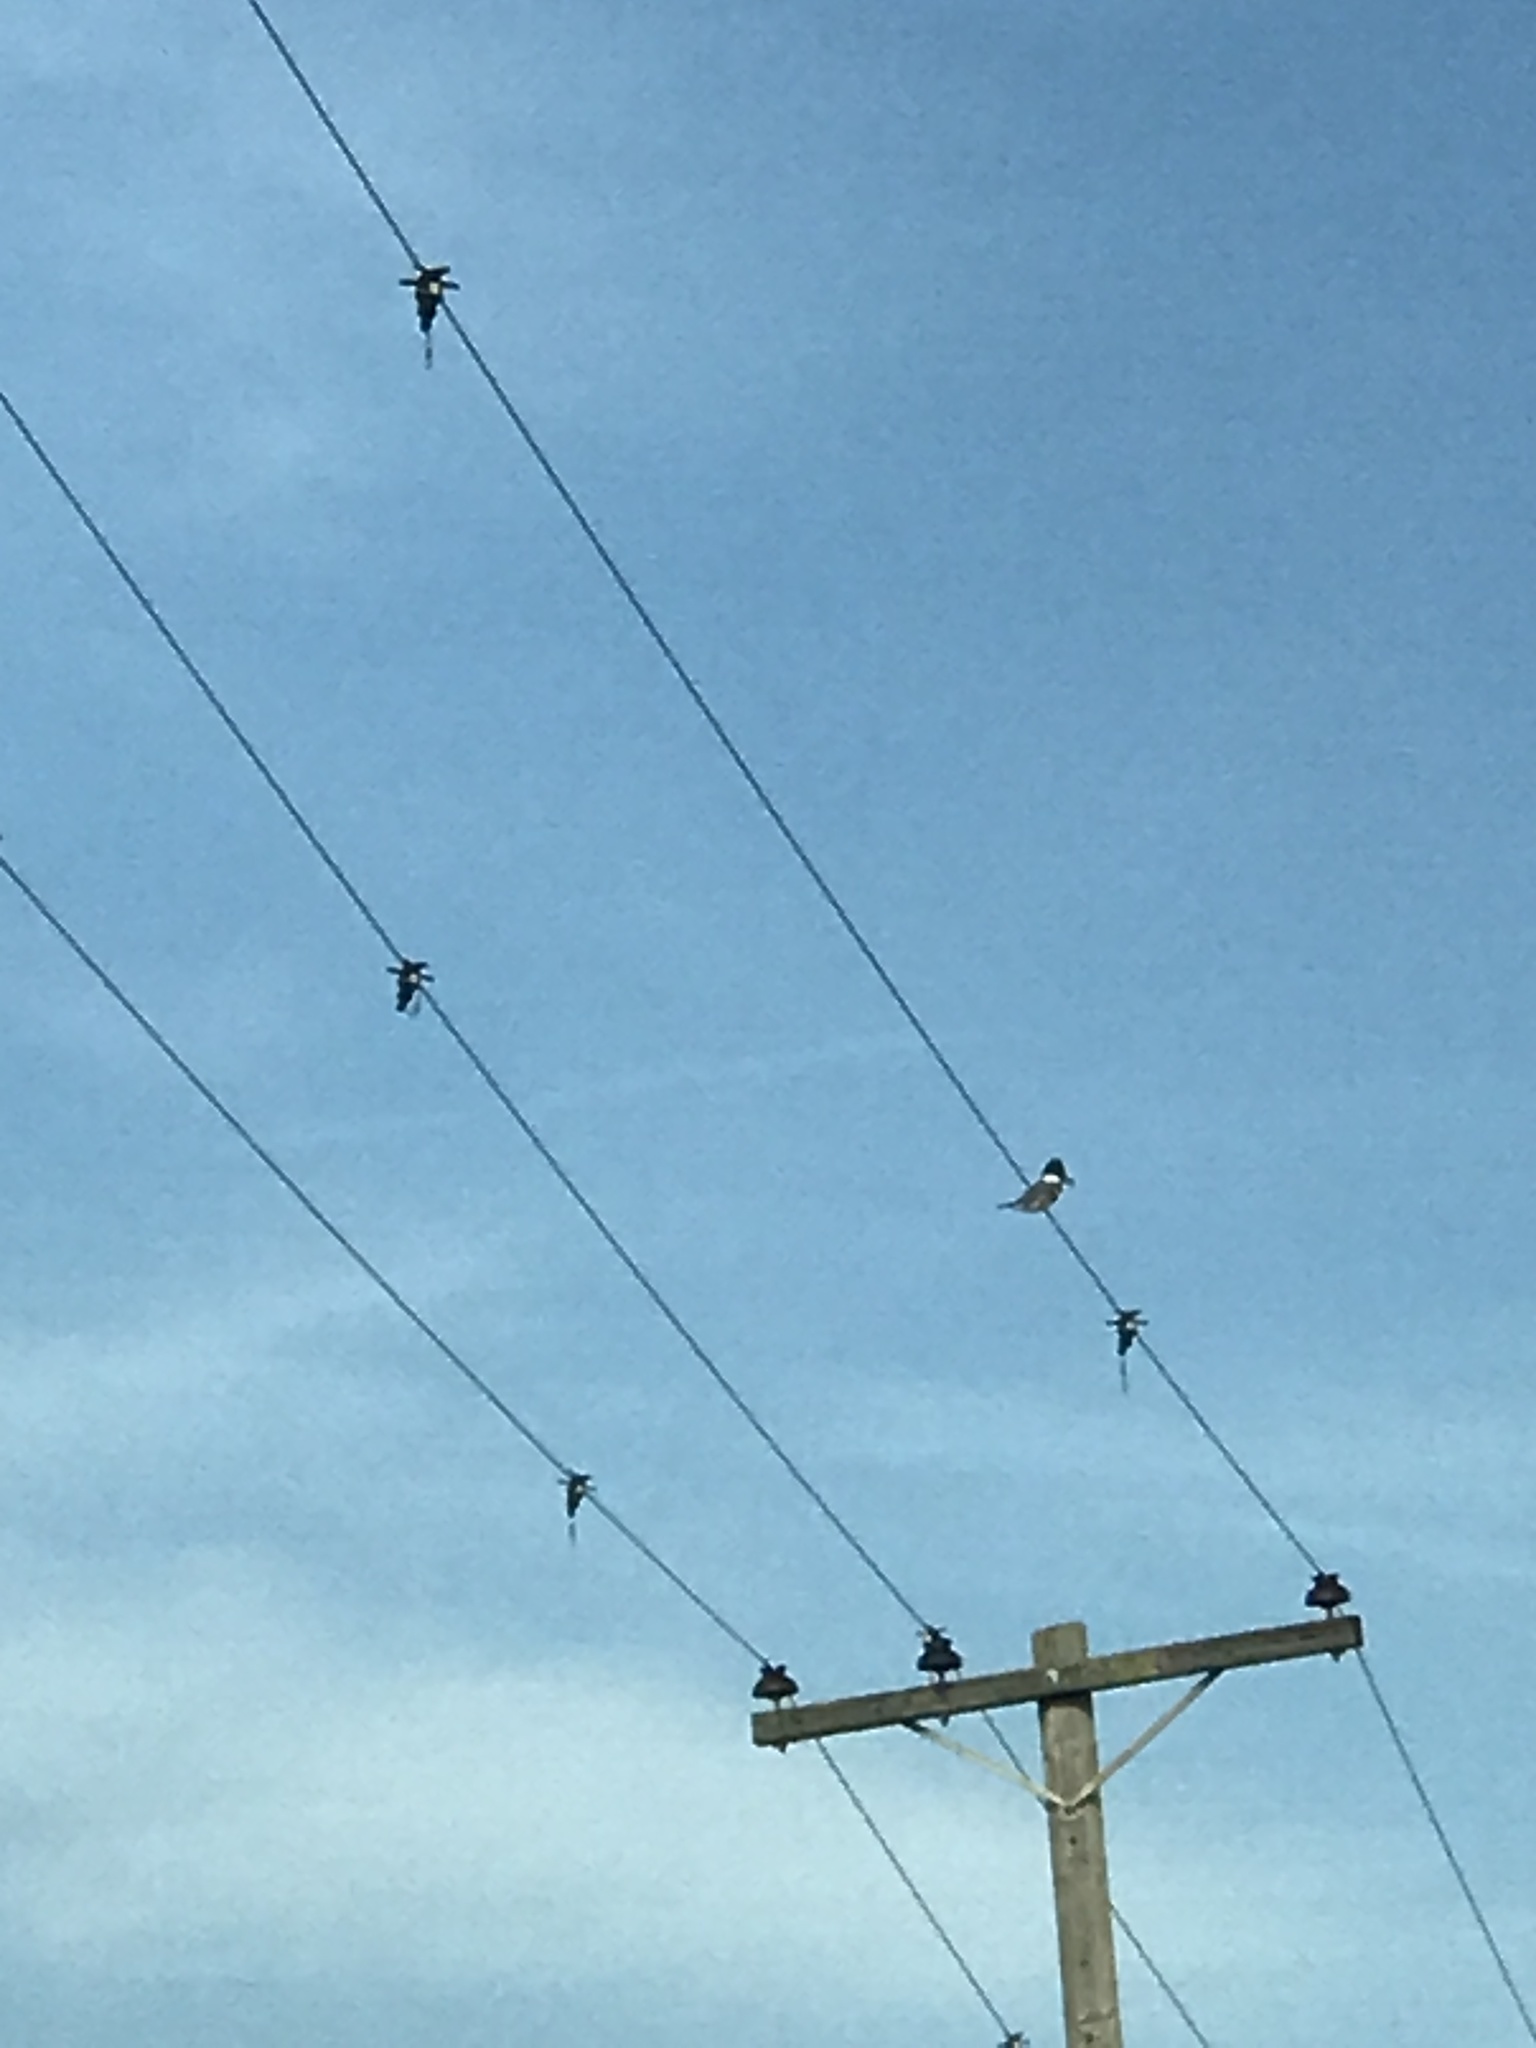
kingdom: Animalia
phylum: Chordata
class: Aves
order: Coraciiformes
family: Alcedinidae
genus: Megaceryle
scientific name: Megaceryle alcyon
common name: Belted kingfisher
